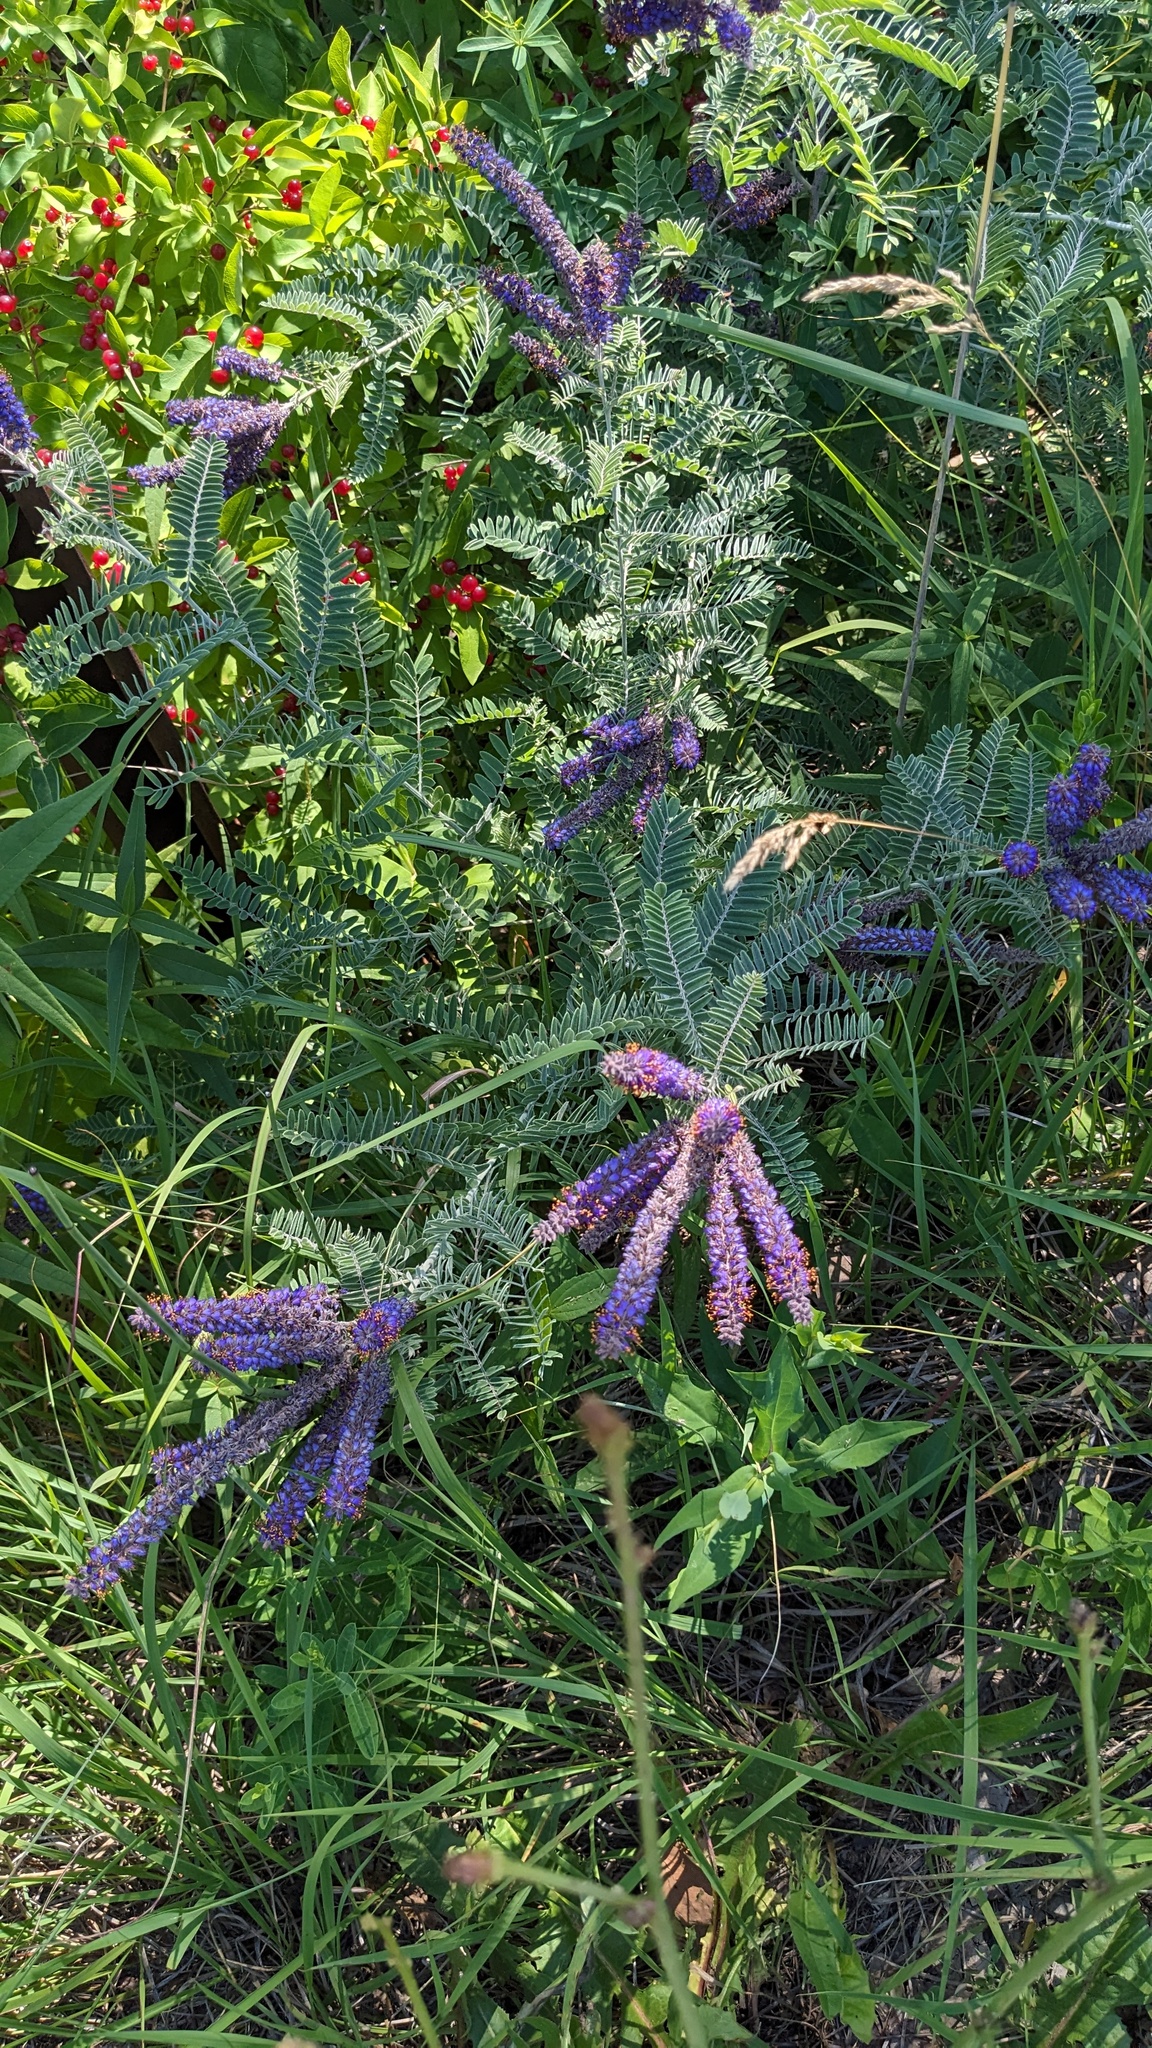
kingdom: Plantae
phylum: Tracheophyta
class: Magnoliopsida
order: Fabales
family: Fabaceae
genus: Amorpha
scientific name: Amorpha canescens
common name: Leadplant
